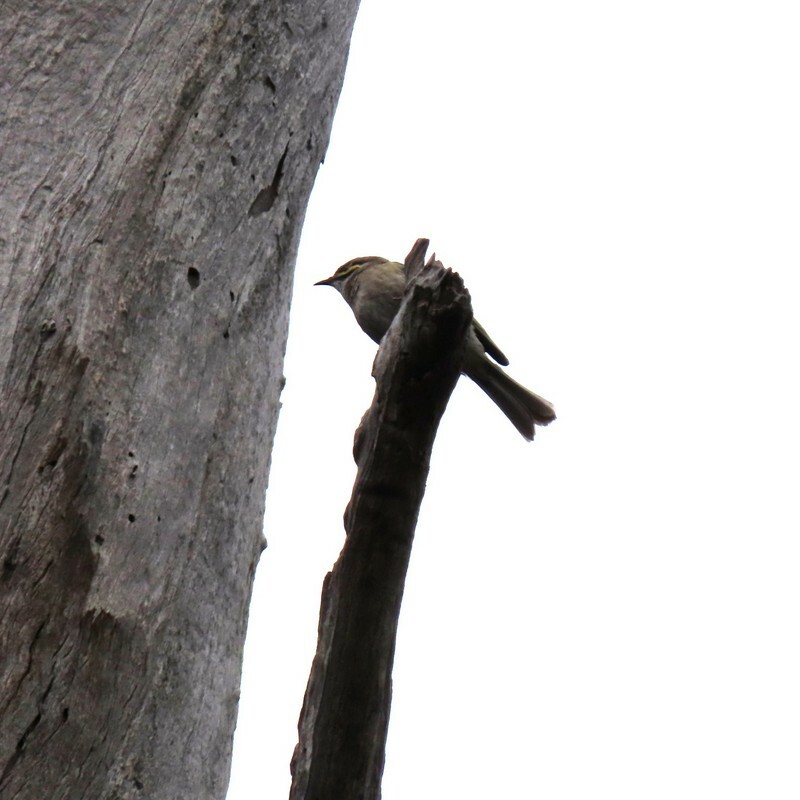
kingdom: Animalia
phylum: Chordata
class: Aves
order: Passeriformes
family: Meliphagidae
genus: Caligavis
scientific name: Caligavis chrysops
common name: Yellow-faced honeyeater
